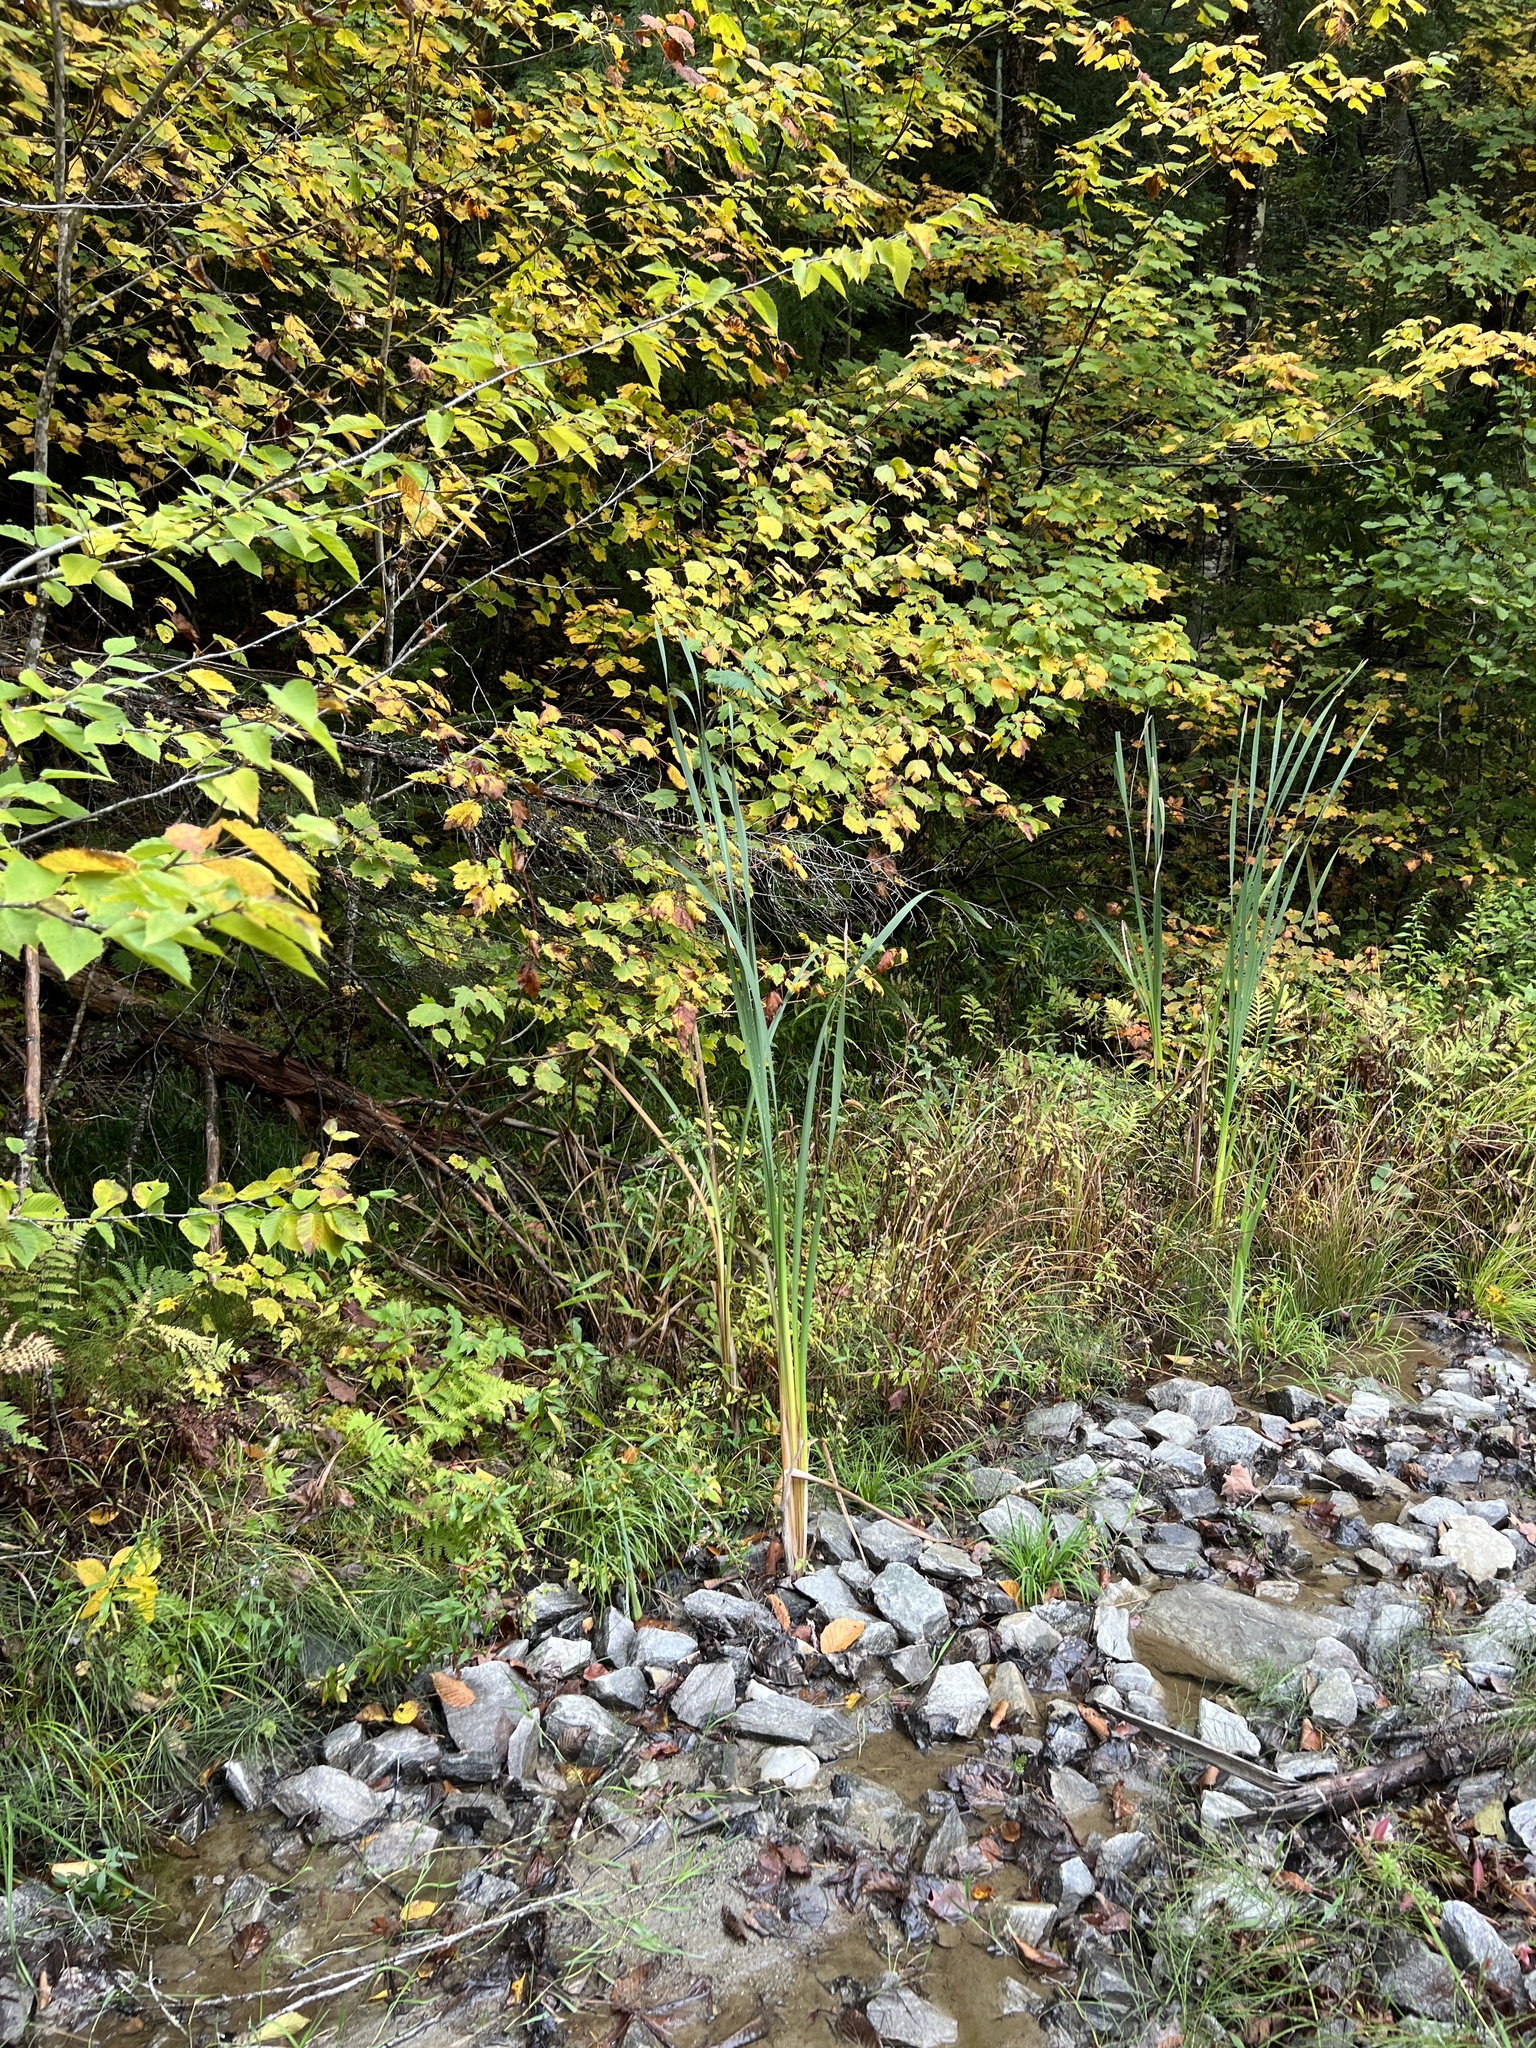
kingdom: Plantae
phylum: Tracheophyta
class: Liliopsida
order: Poales
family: Typhaceae
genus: Typha
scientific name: Typha latifolia
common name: Broadleaf cattail
